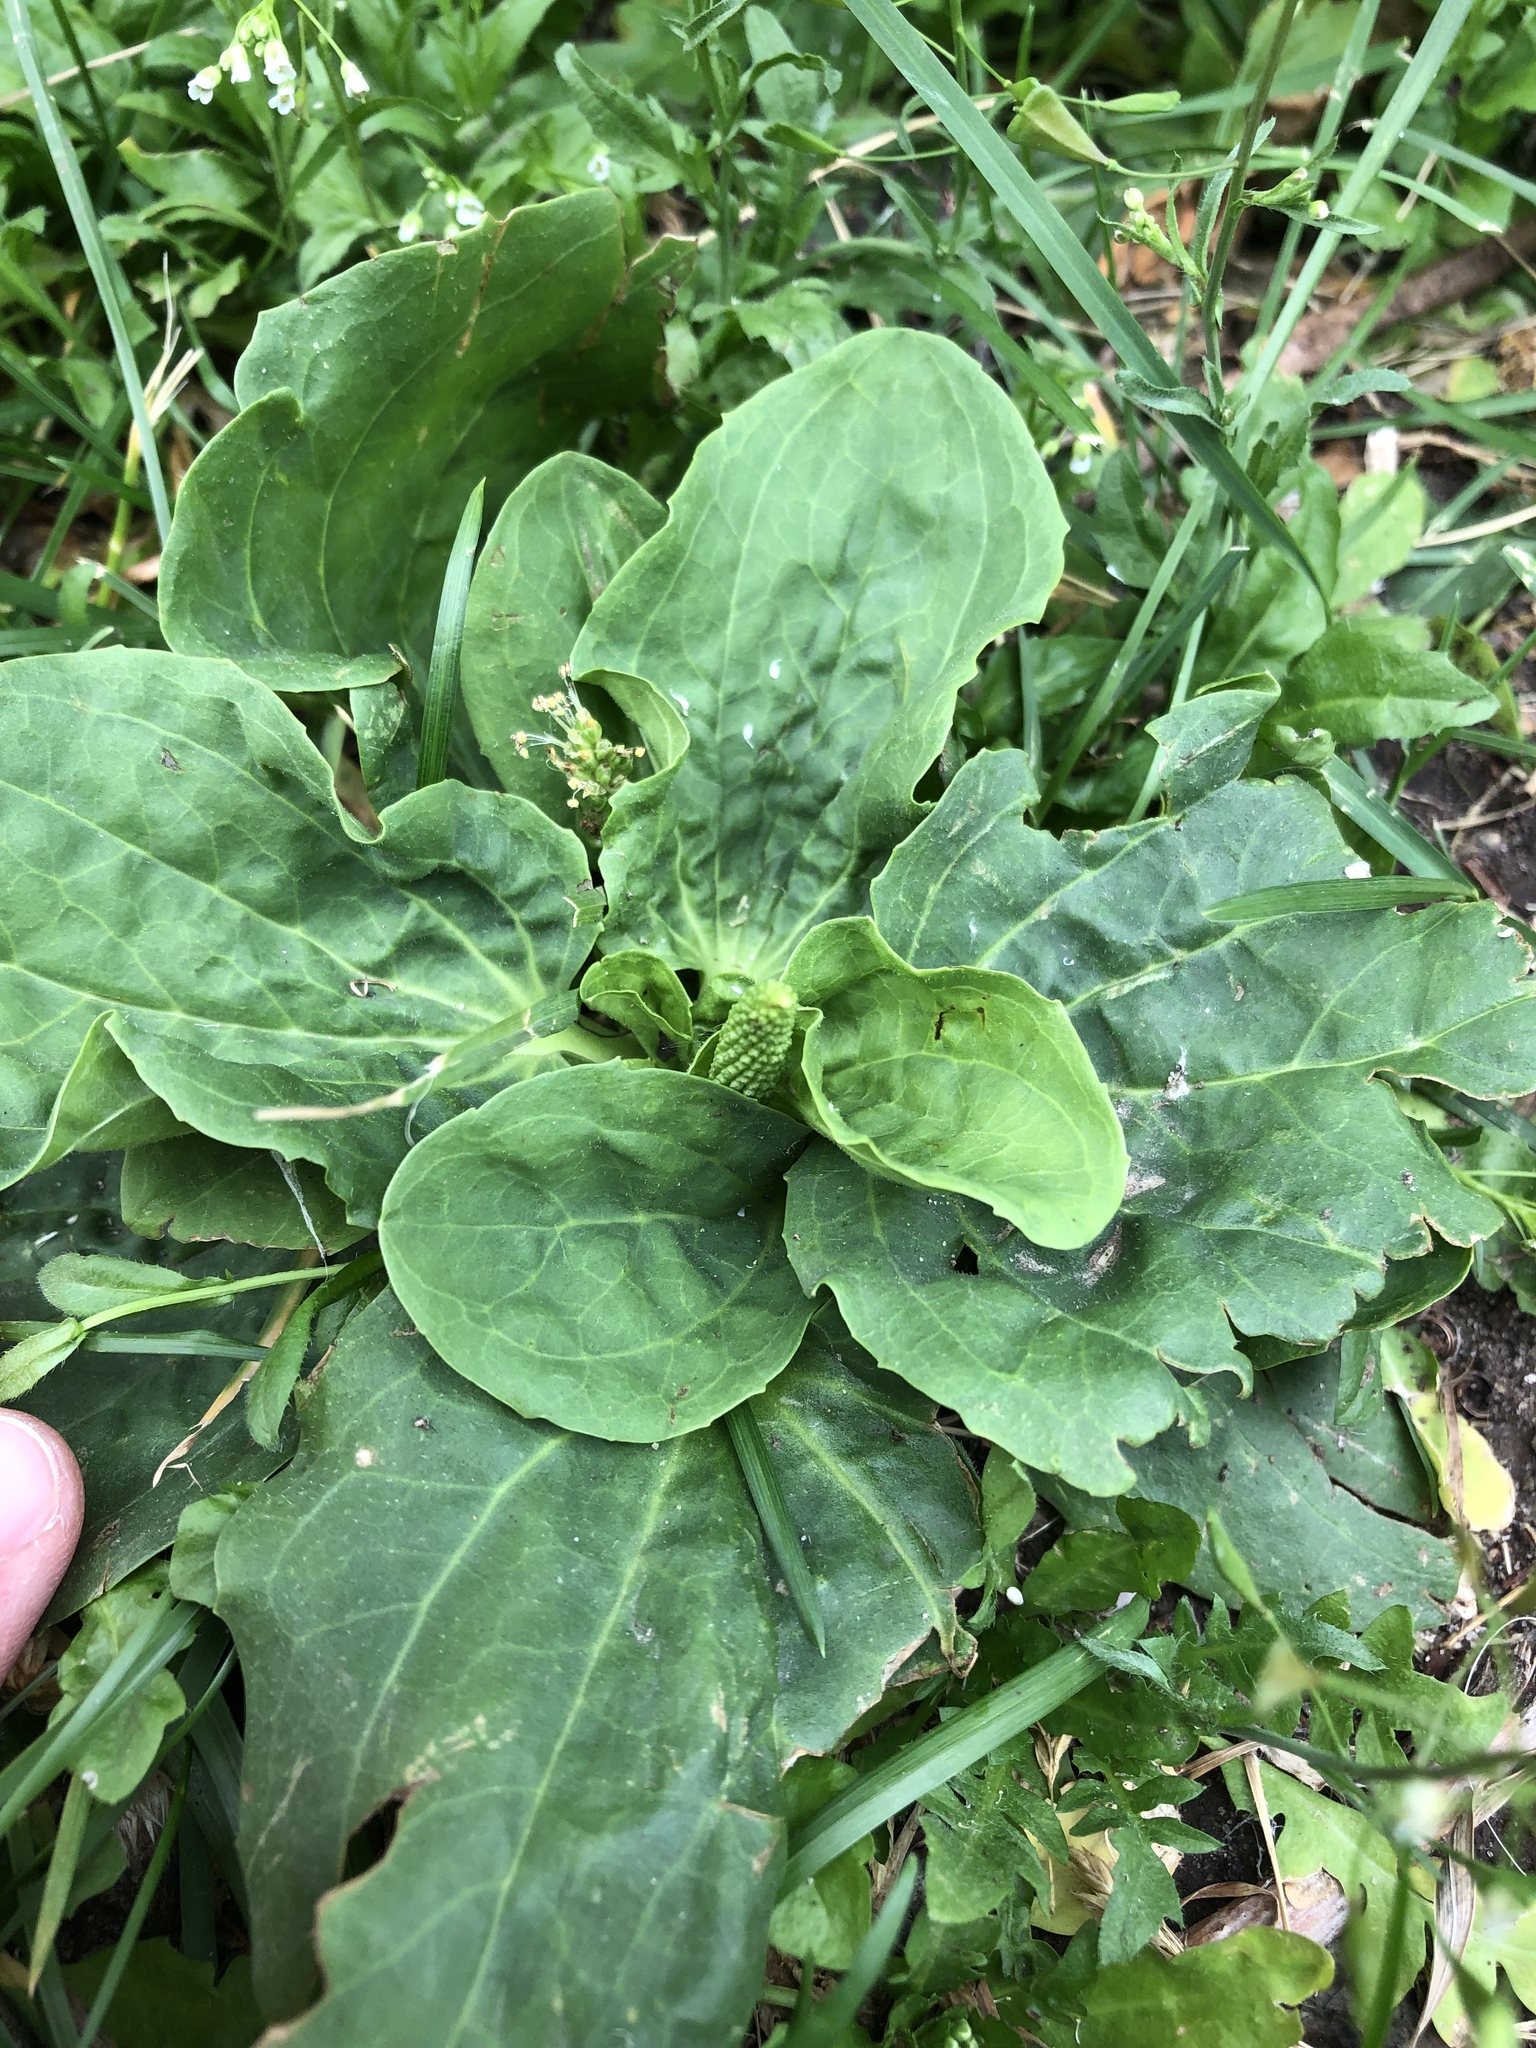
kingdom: Plantae
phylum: Tracheophyta
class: Magnoliopsida
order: Lamiales
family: Plantaginaceae
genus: Plantago
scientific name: Plantago major
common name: Common plantain
